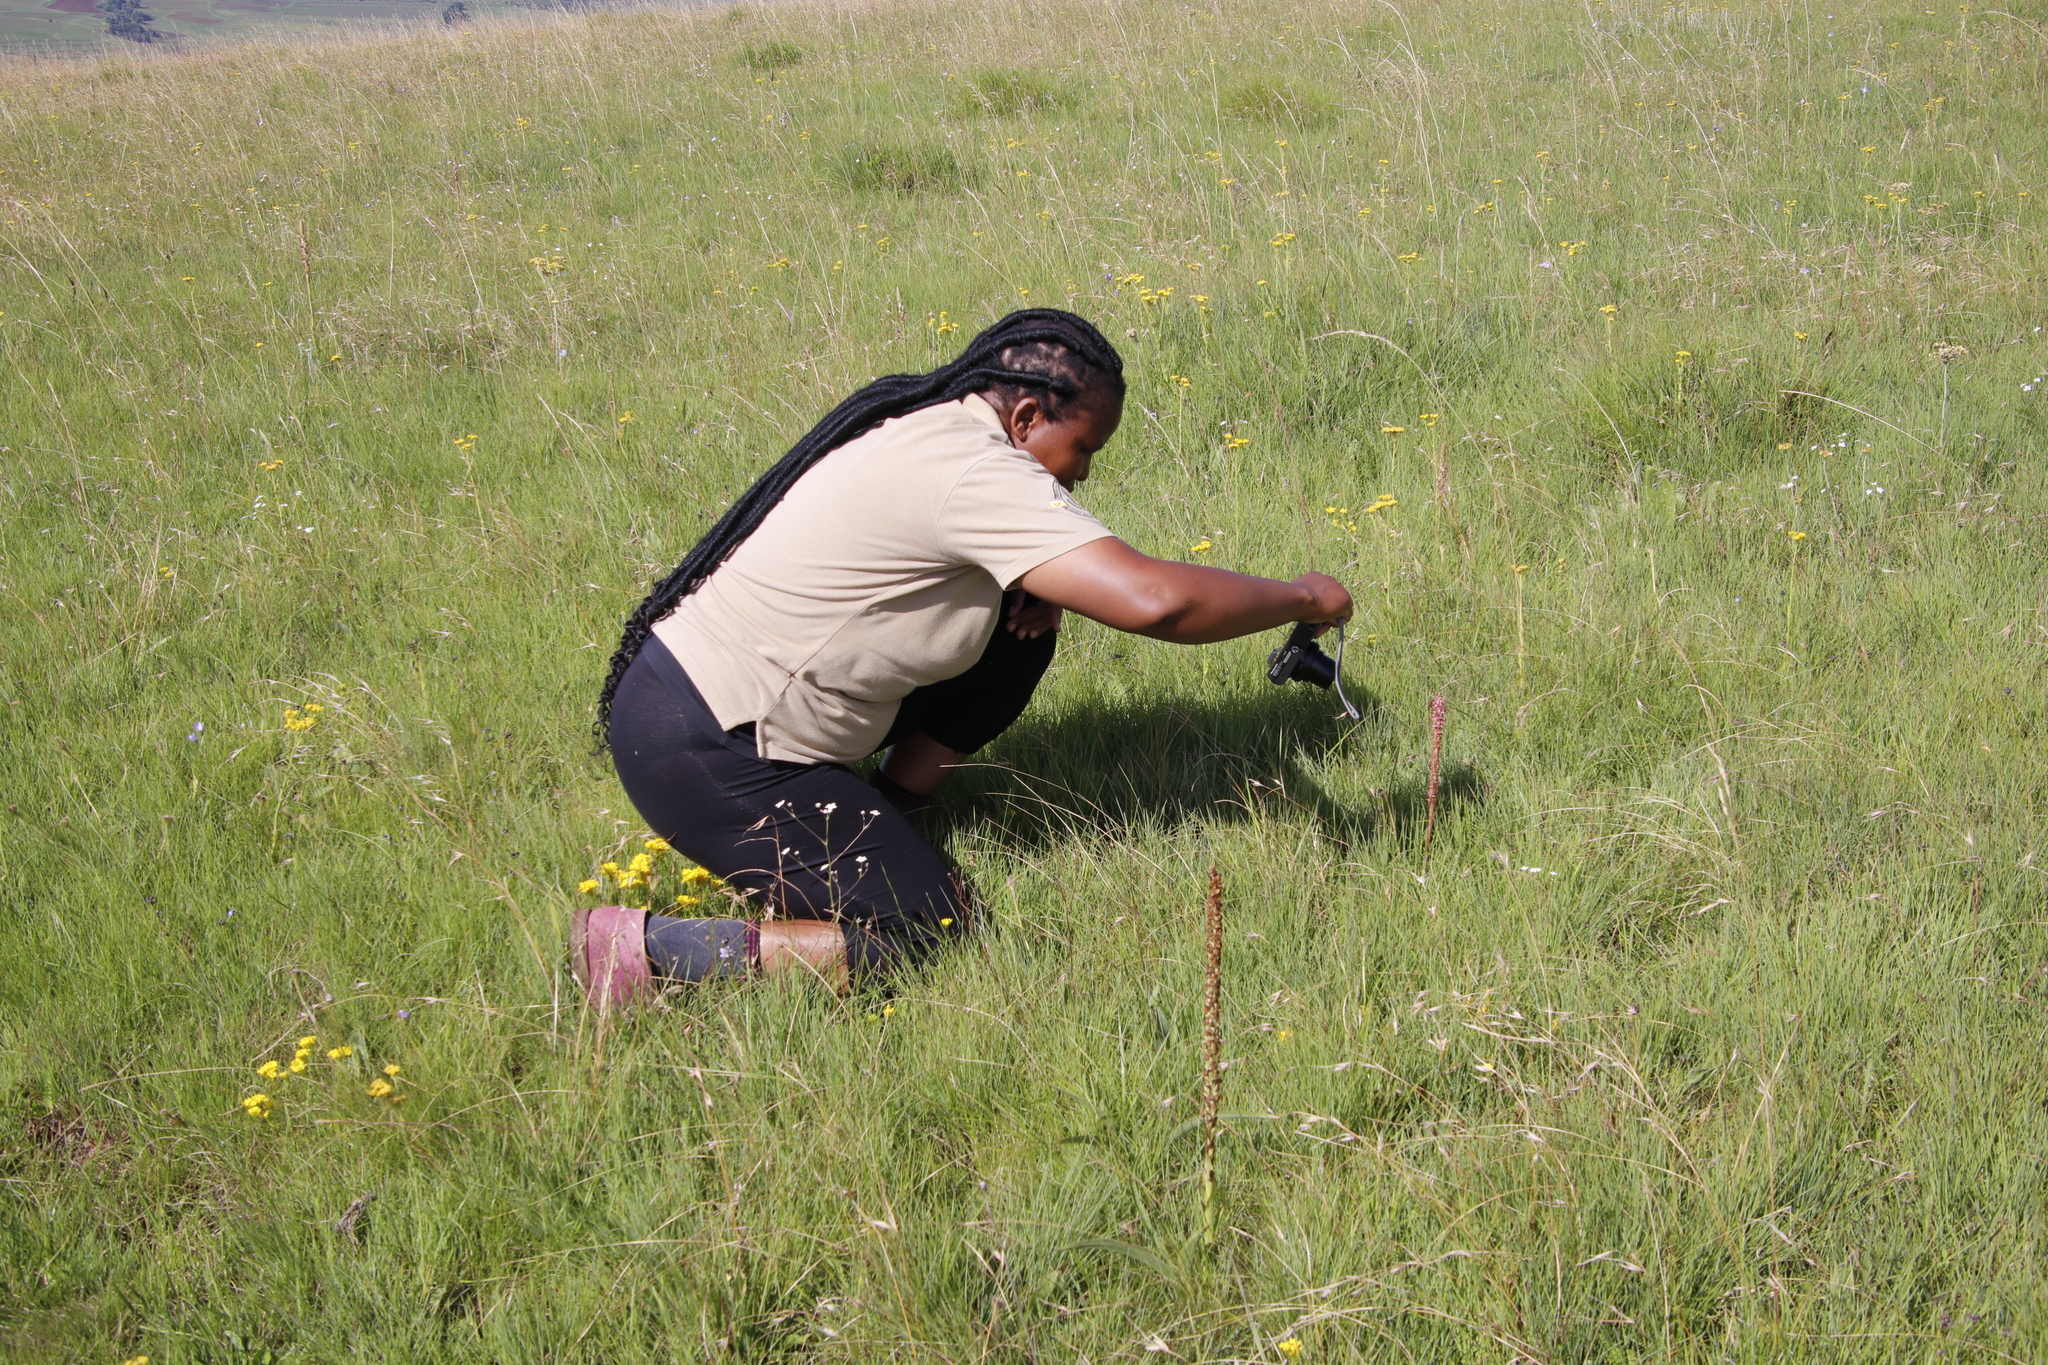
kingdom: Plantae
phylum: Tracheophyta
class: Liliopsida
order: Asparagales
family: Orchidaceae
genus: Disa
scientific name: Disa versicolor
